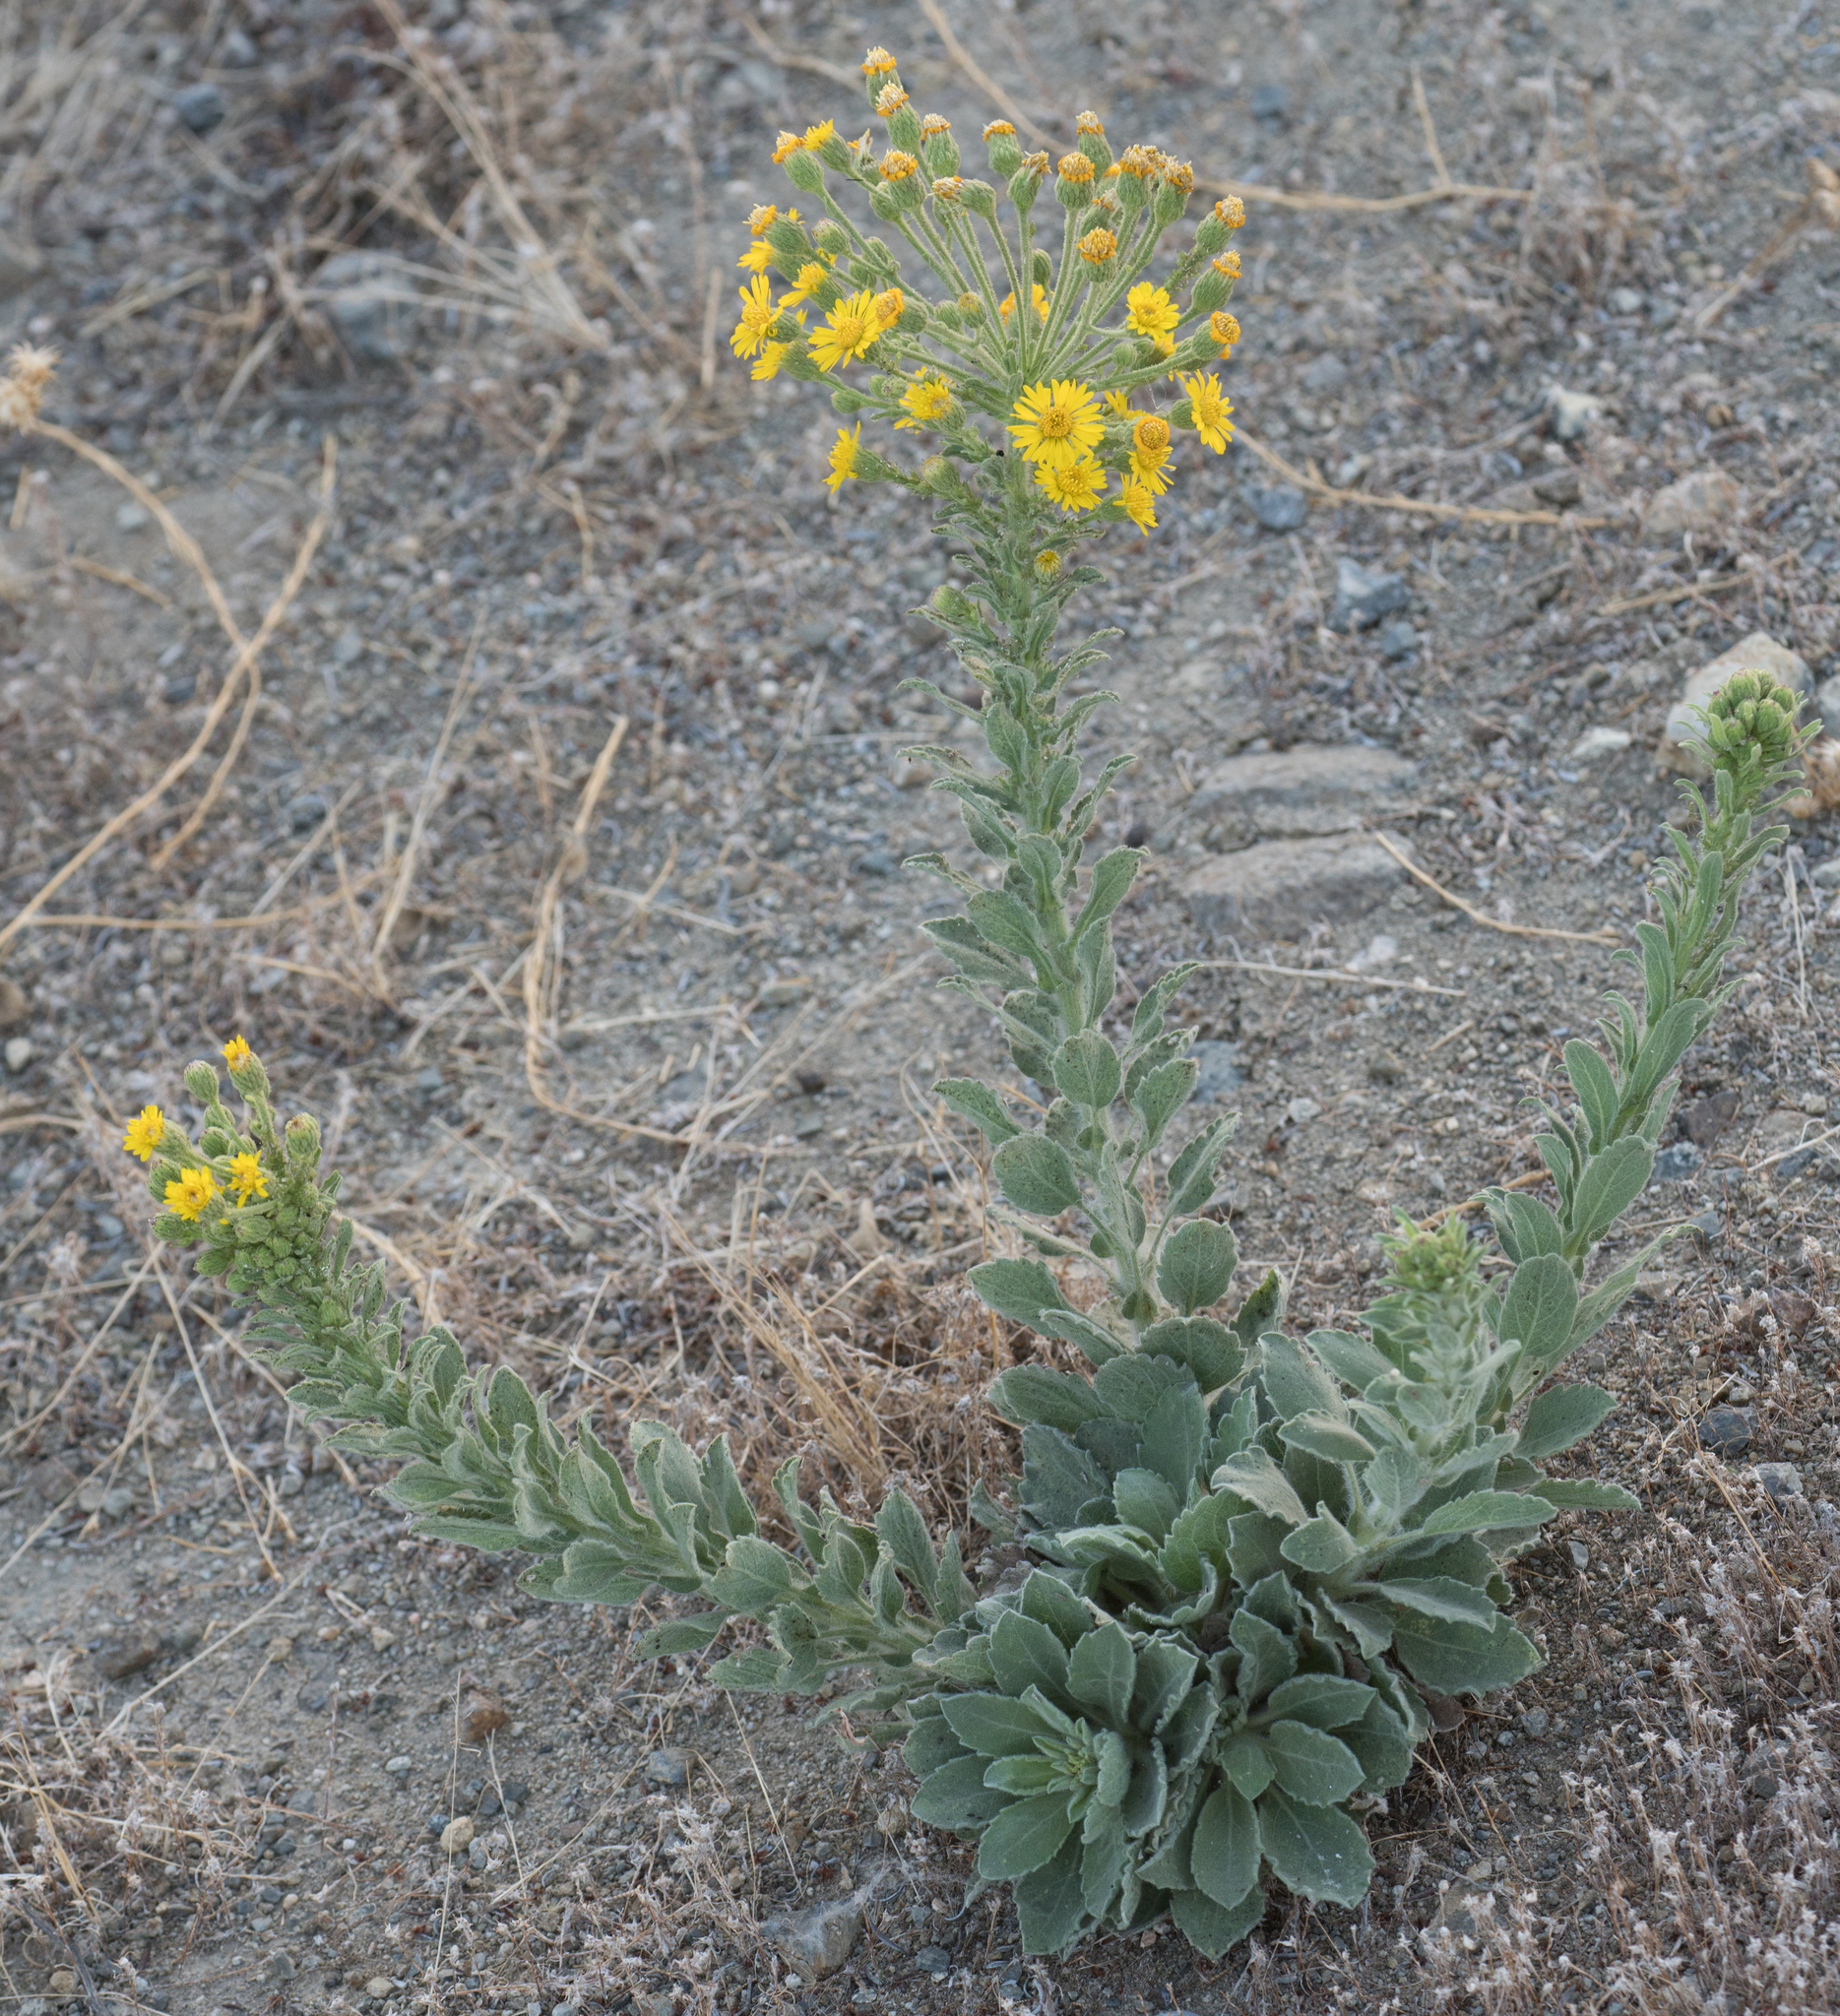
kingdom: Plantae
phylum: Tracheophyta
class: Magnoliopsida
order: Asterales
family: Asteraceae
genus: Heterotheca
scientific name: Heterotheca grandiflora
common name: Telegraphweed
